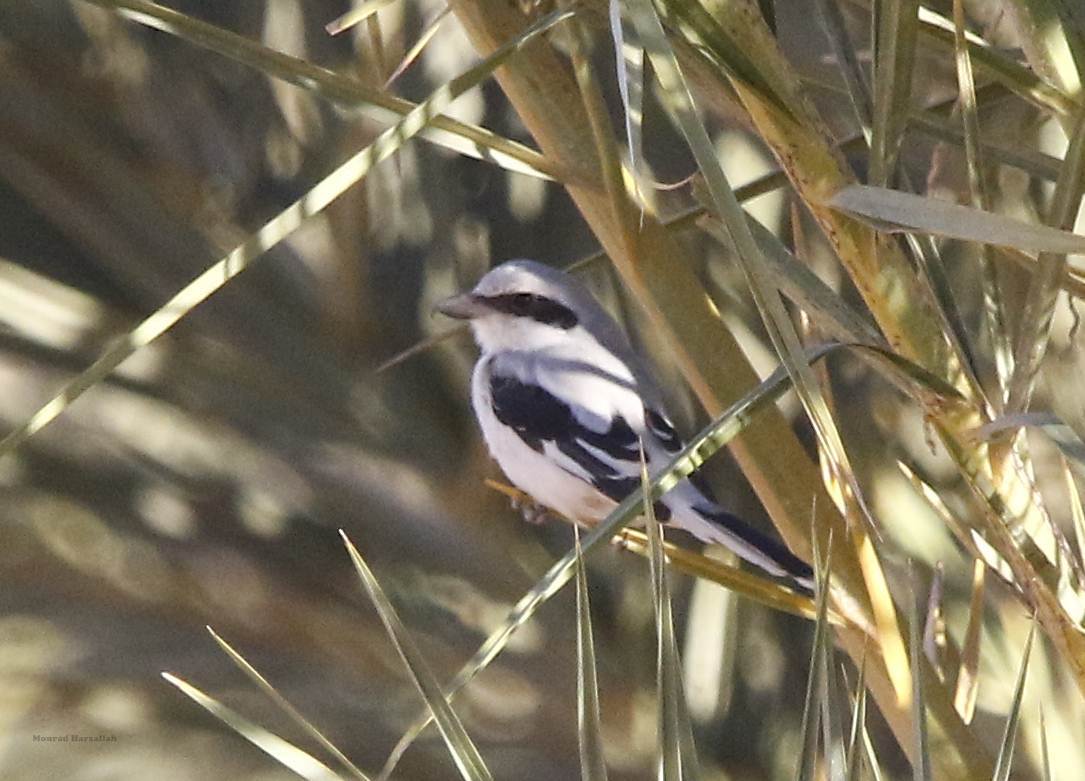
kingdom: Animalia
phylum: Chordata
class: Aves
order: Passeriformes
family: Laniidae
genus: Lanius
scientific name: Lanius excubitor
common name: Great grey shrike
